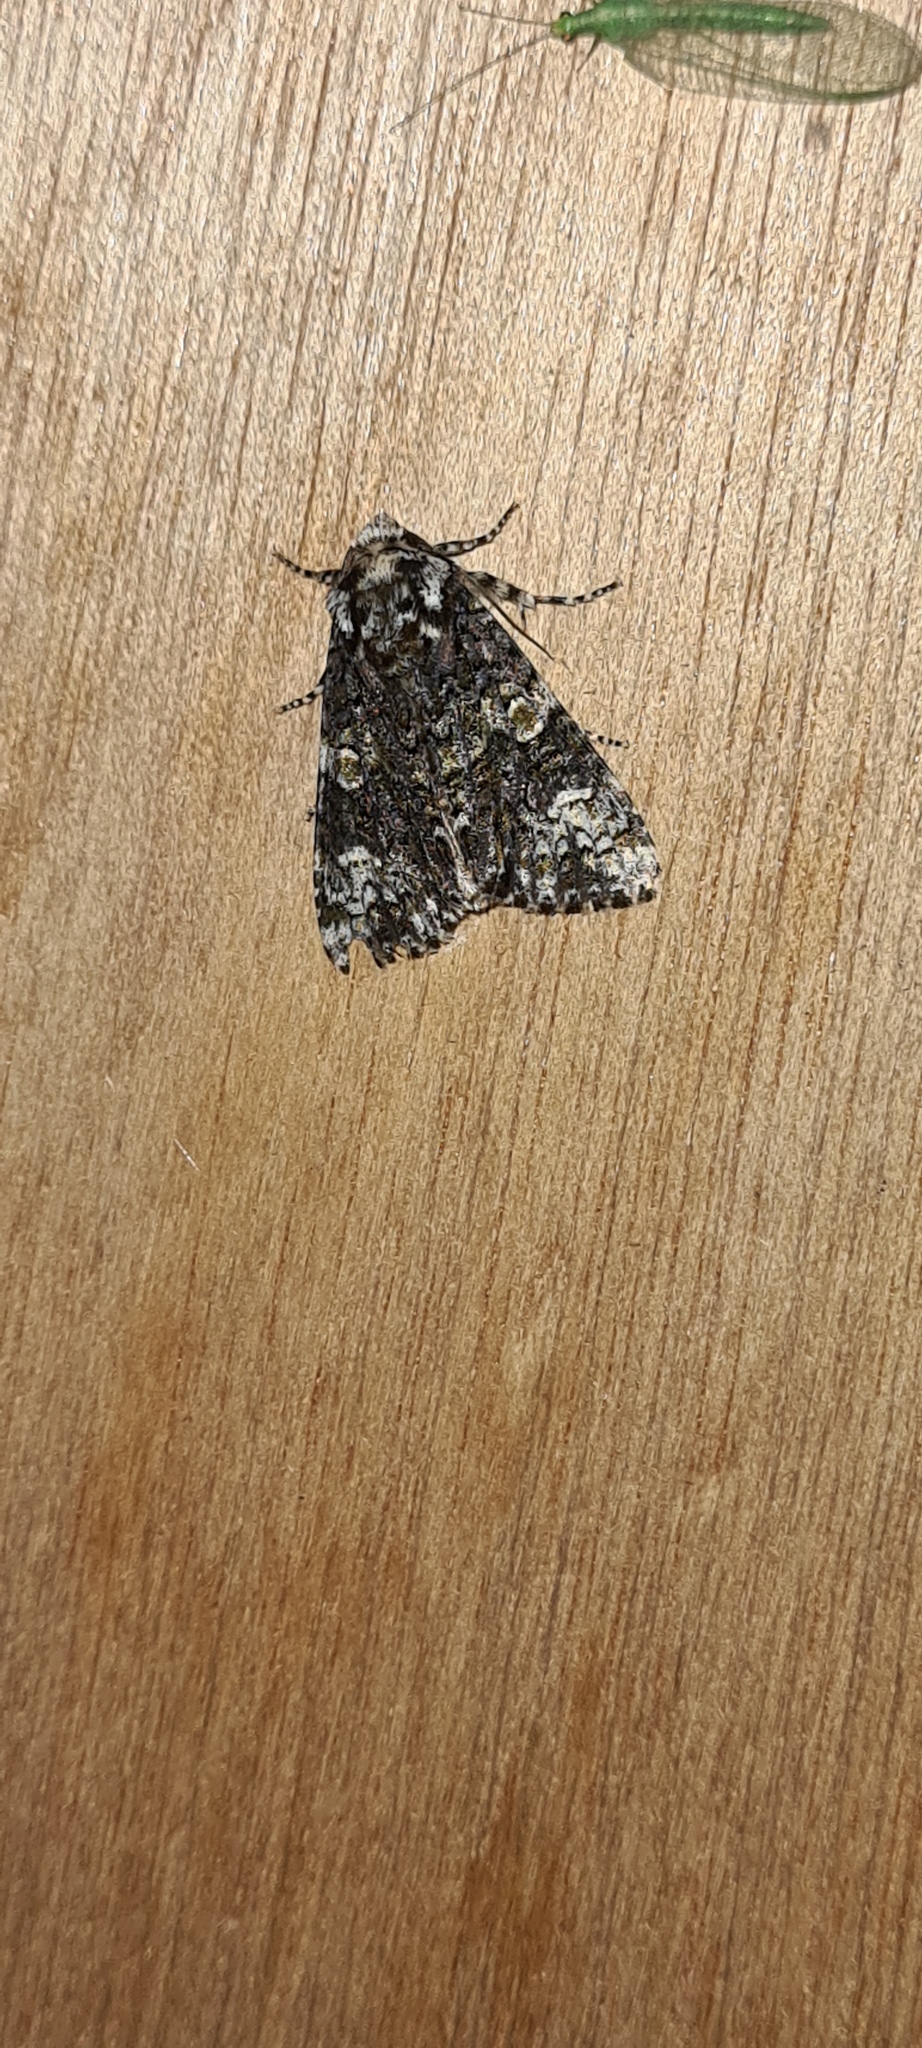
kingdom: Animalia
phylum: Arthropoda
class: Insecta
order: Lepidoptera
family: Noctuidae
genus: Craniophora
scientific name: Craniophora ligustri
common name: Coronet
